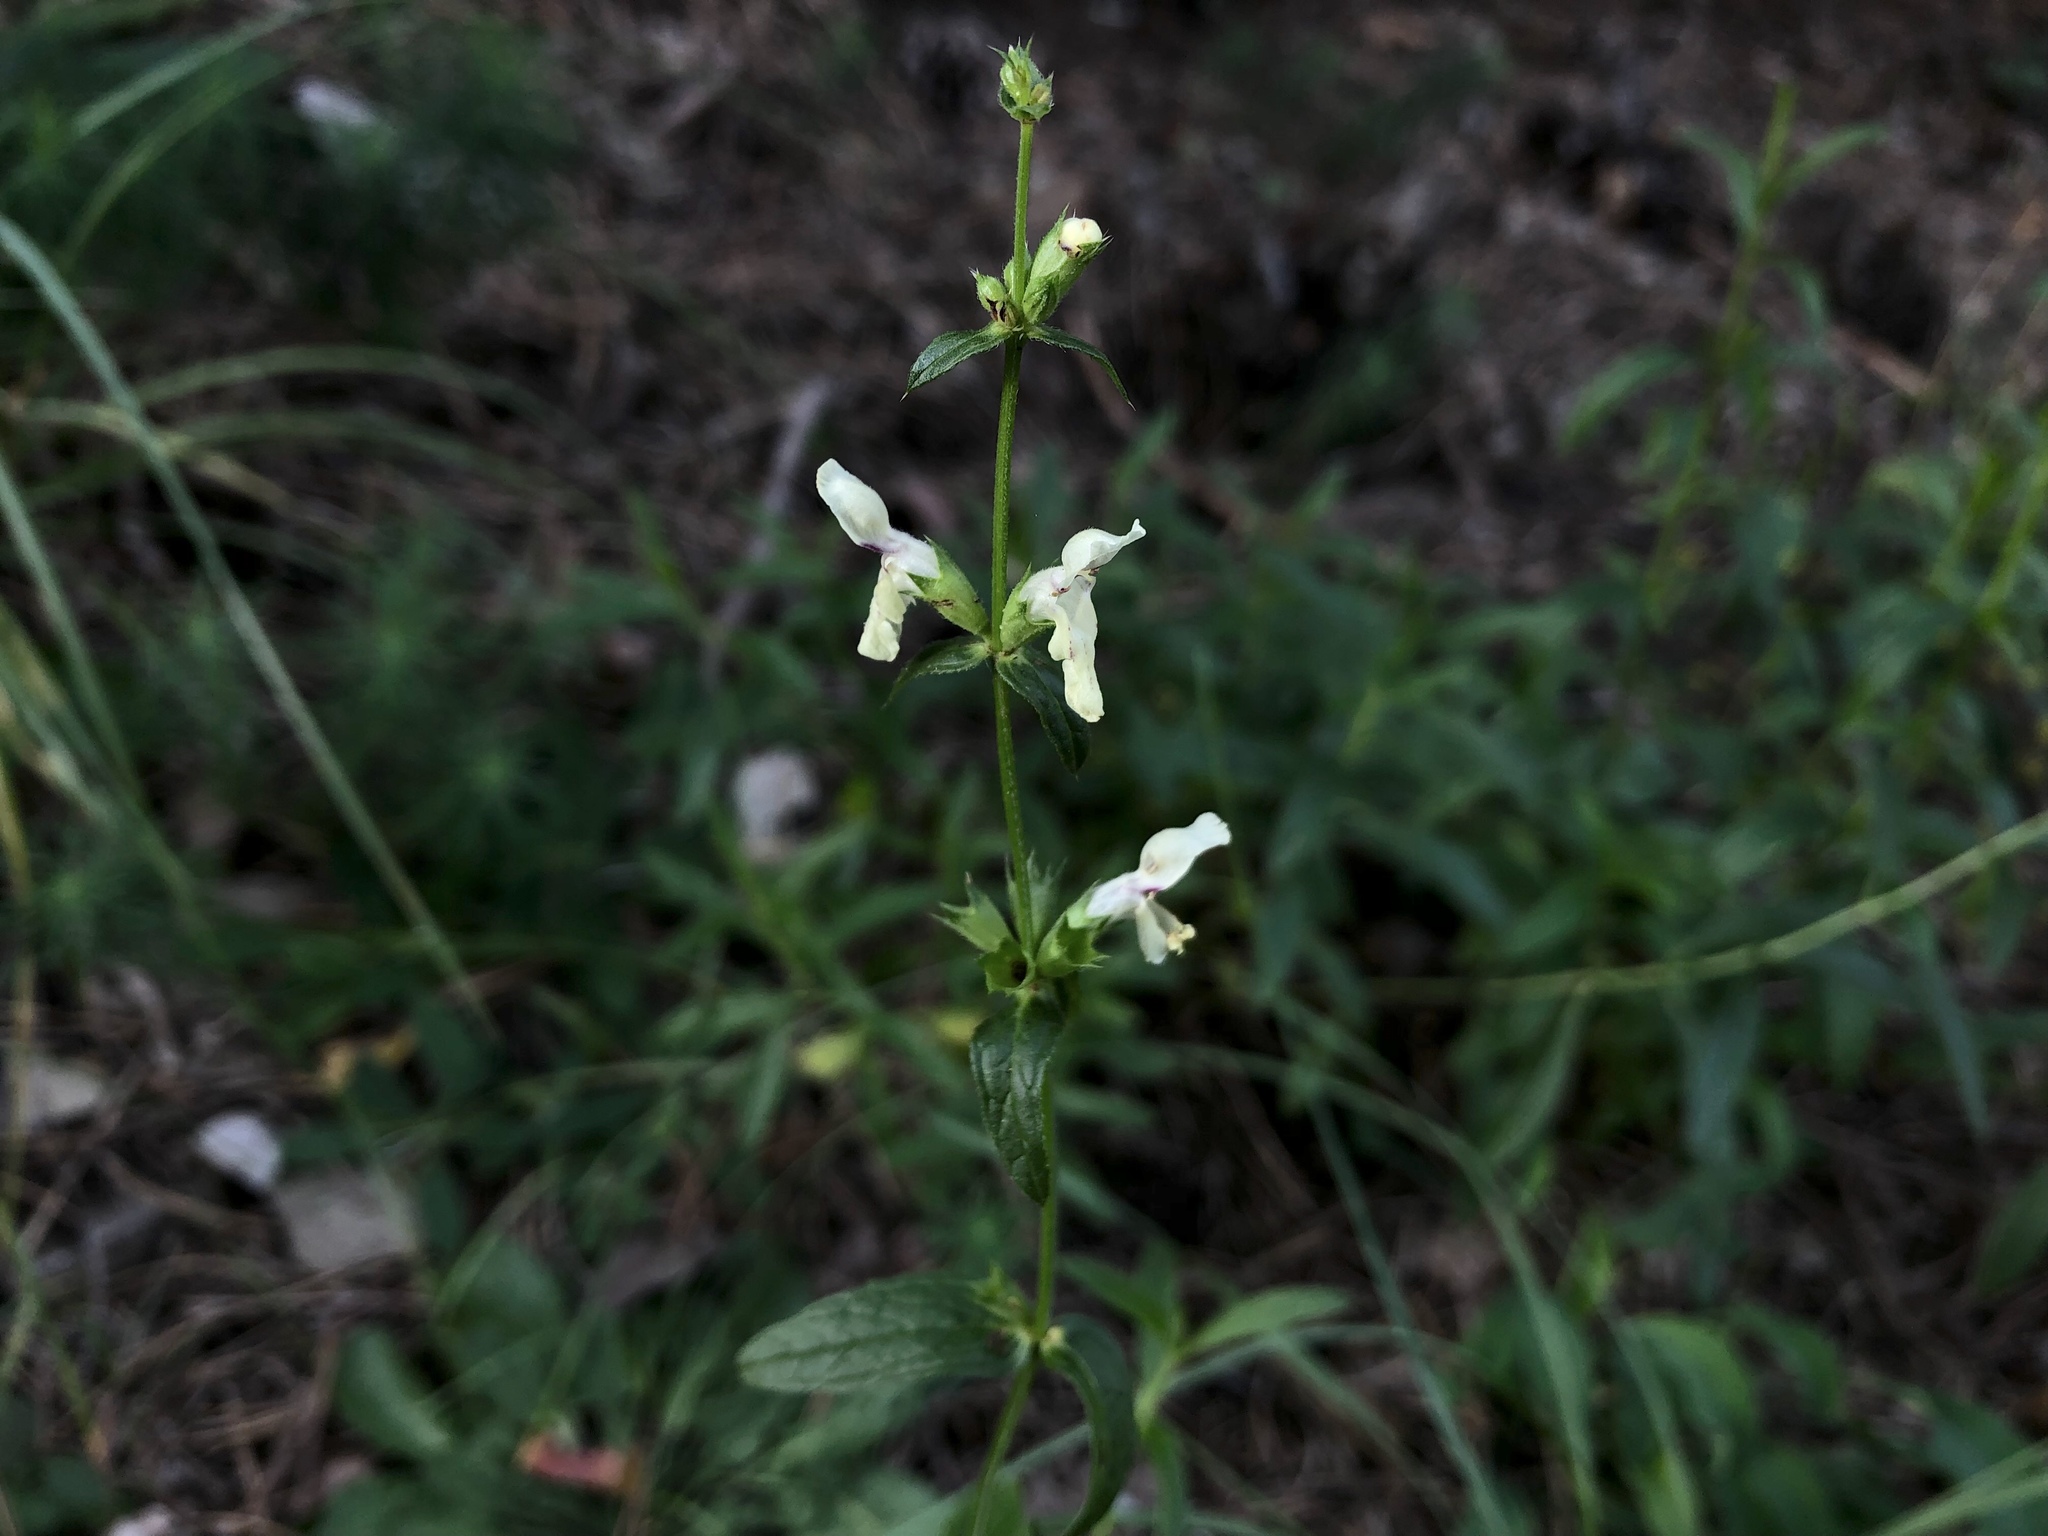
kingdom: Plantae
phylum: Tracheophyta
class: Magnoliopsida
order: Lamiales
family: Lamiaceae
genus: Stachys
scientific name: Stachys recta
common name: Perennial yellow-woundwort
